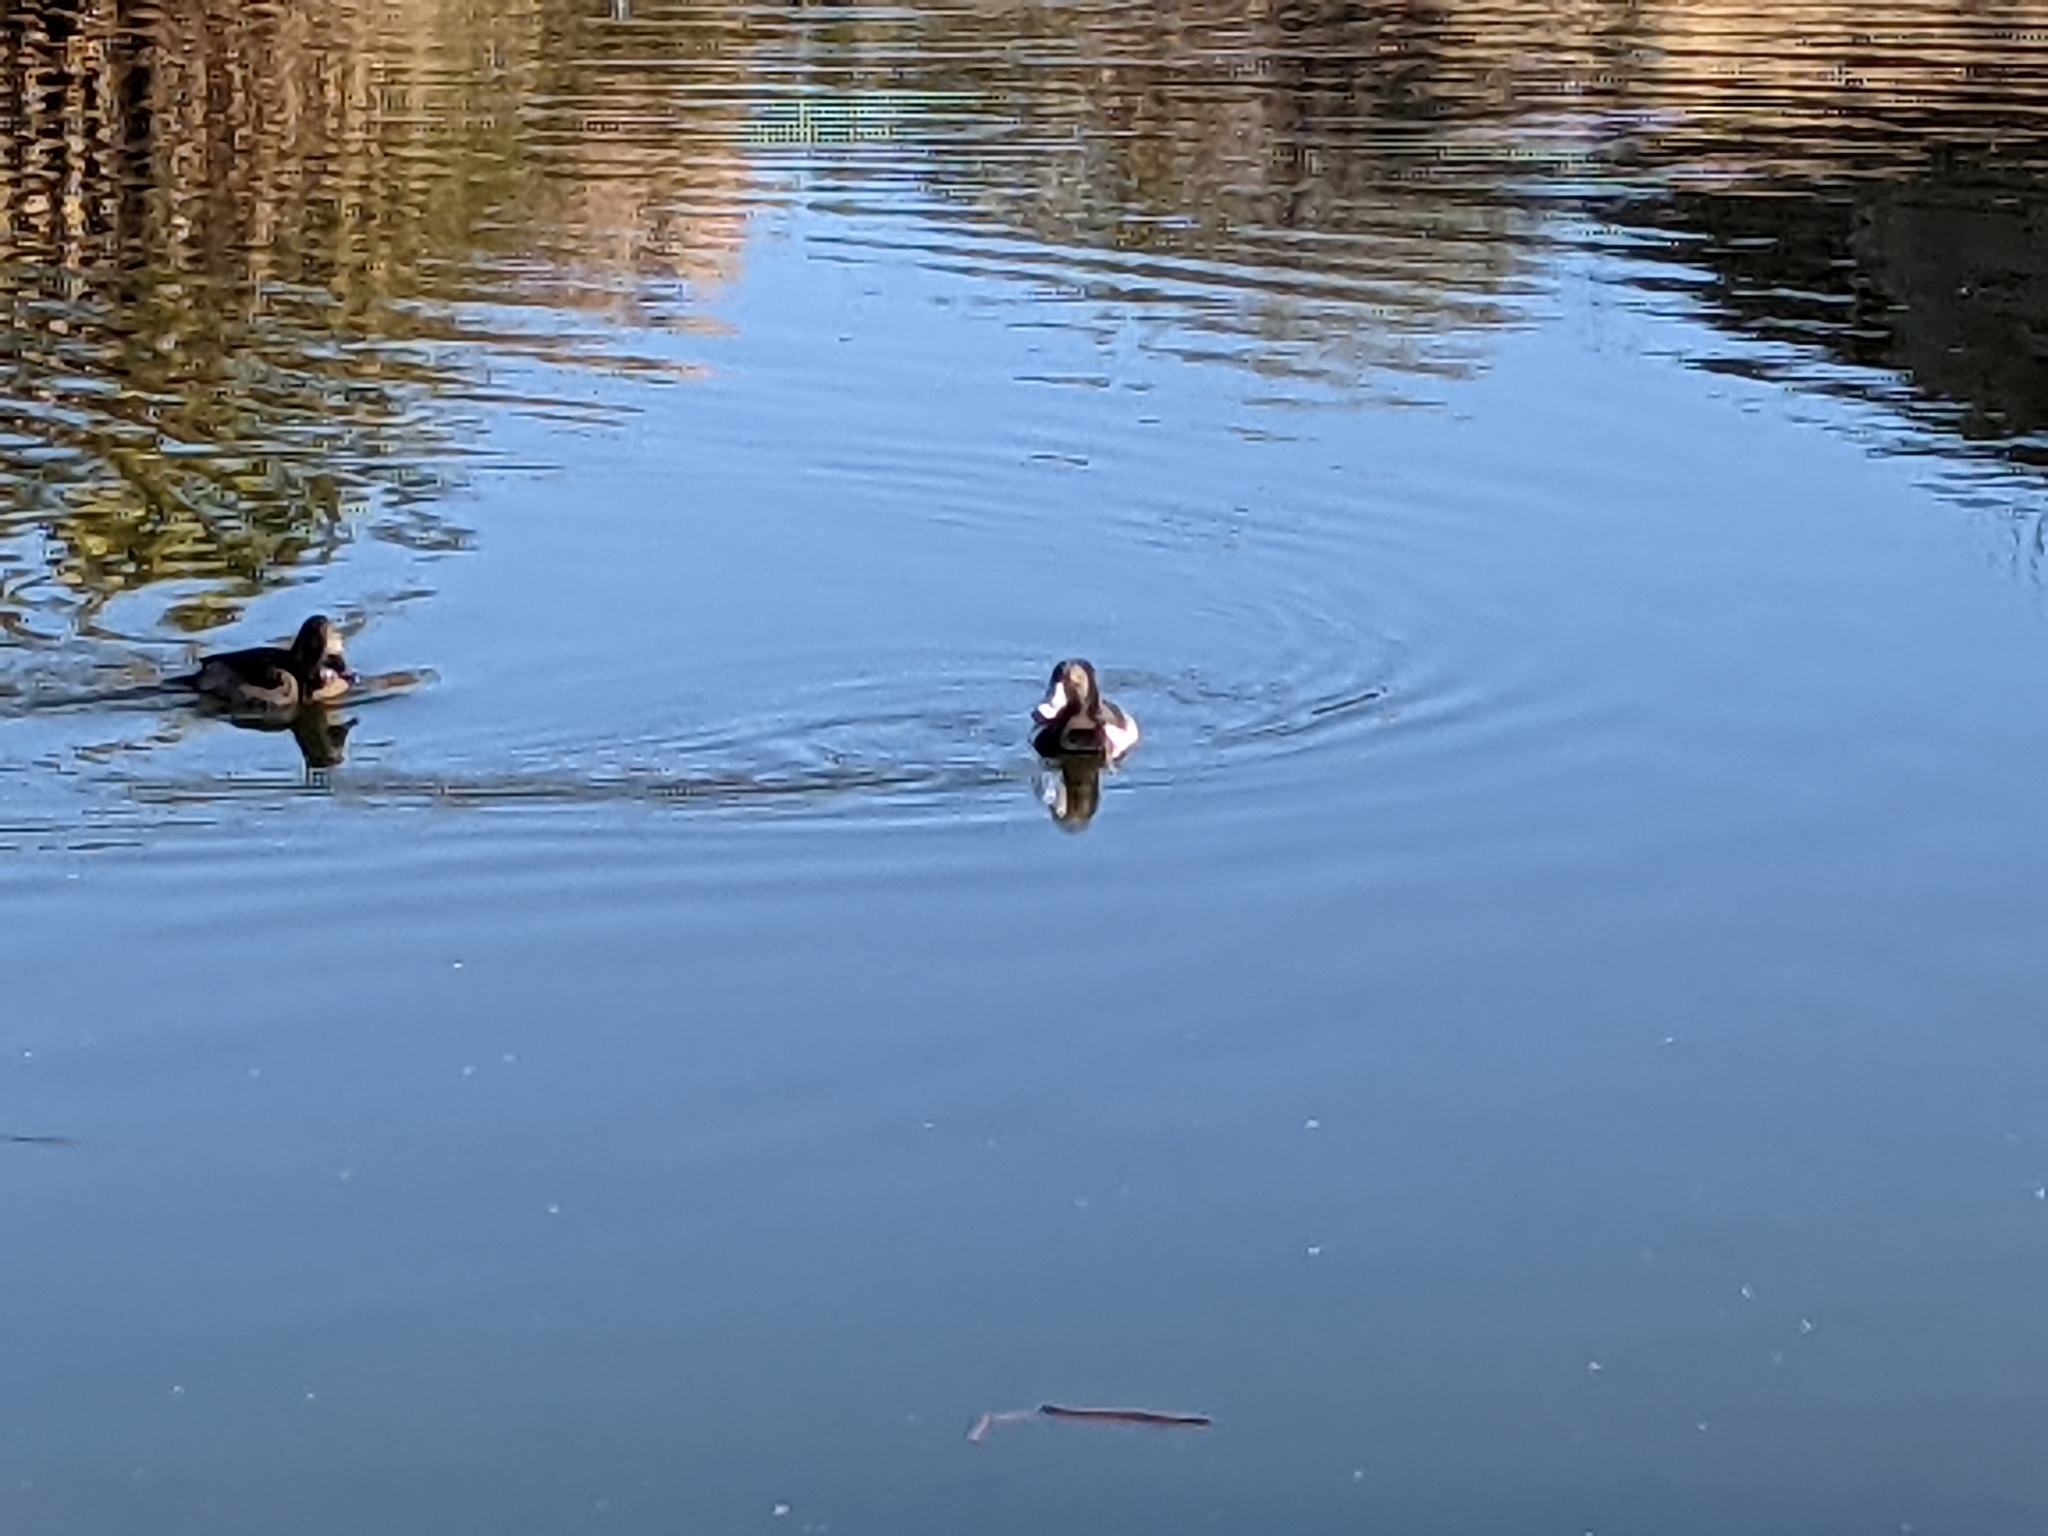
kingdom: Animalia
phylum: Chordata
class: Aves
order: Anseriformes
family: Anatidae
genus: Aythya
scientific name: Aythya collaris
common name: Ring-necked duck
